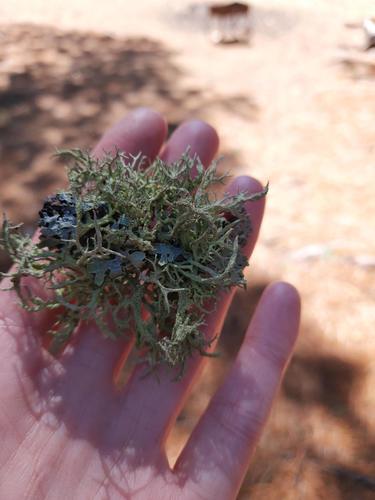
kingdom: Fungi
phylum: Ascomycota
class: Lecanoromycetes
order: Lecanorales
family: Parmeliaceae
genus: Evernia
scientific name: Evernia mesomorpha
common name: Boreal oak moss lichen
